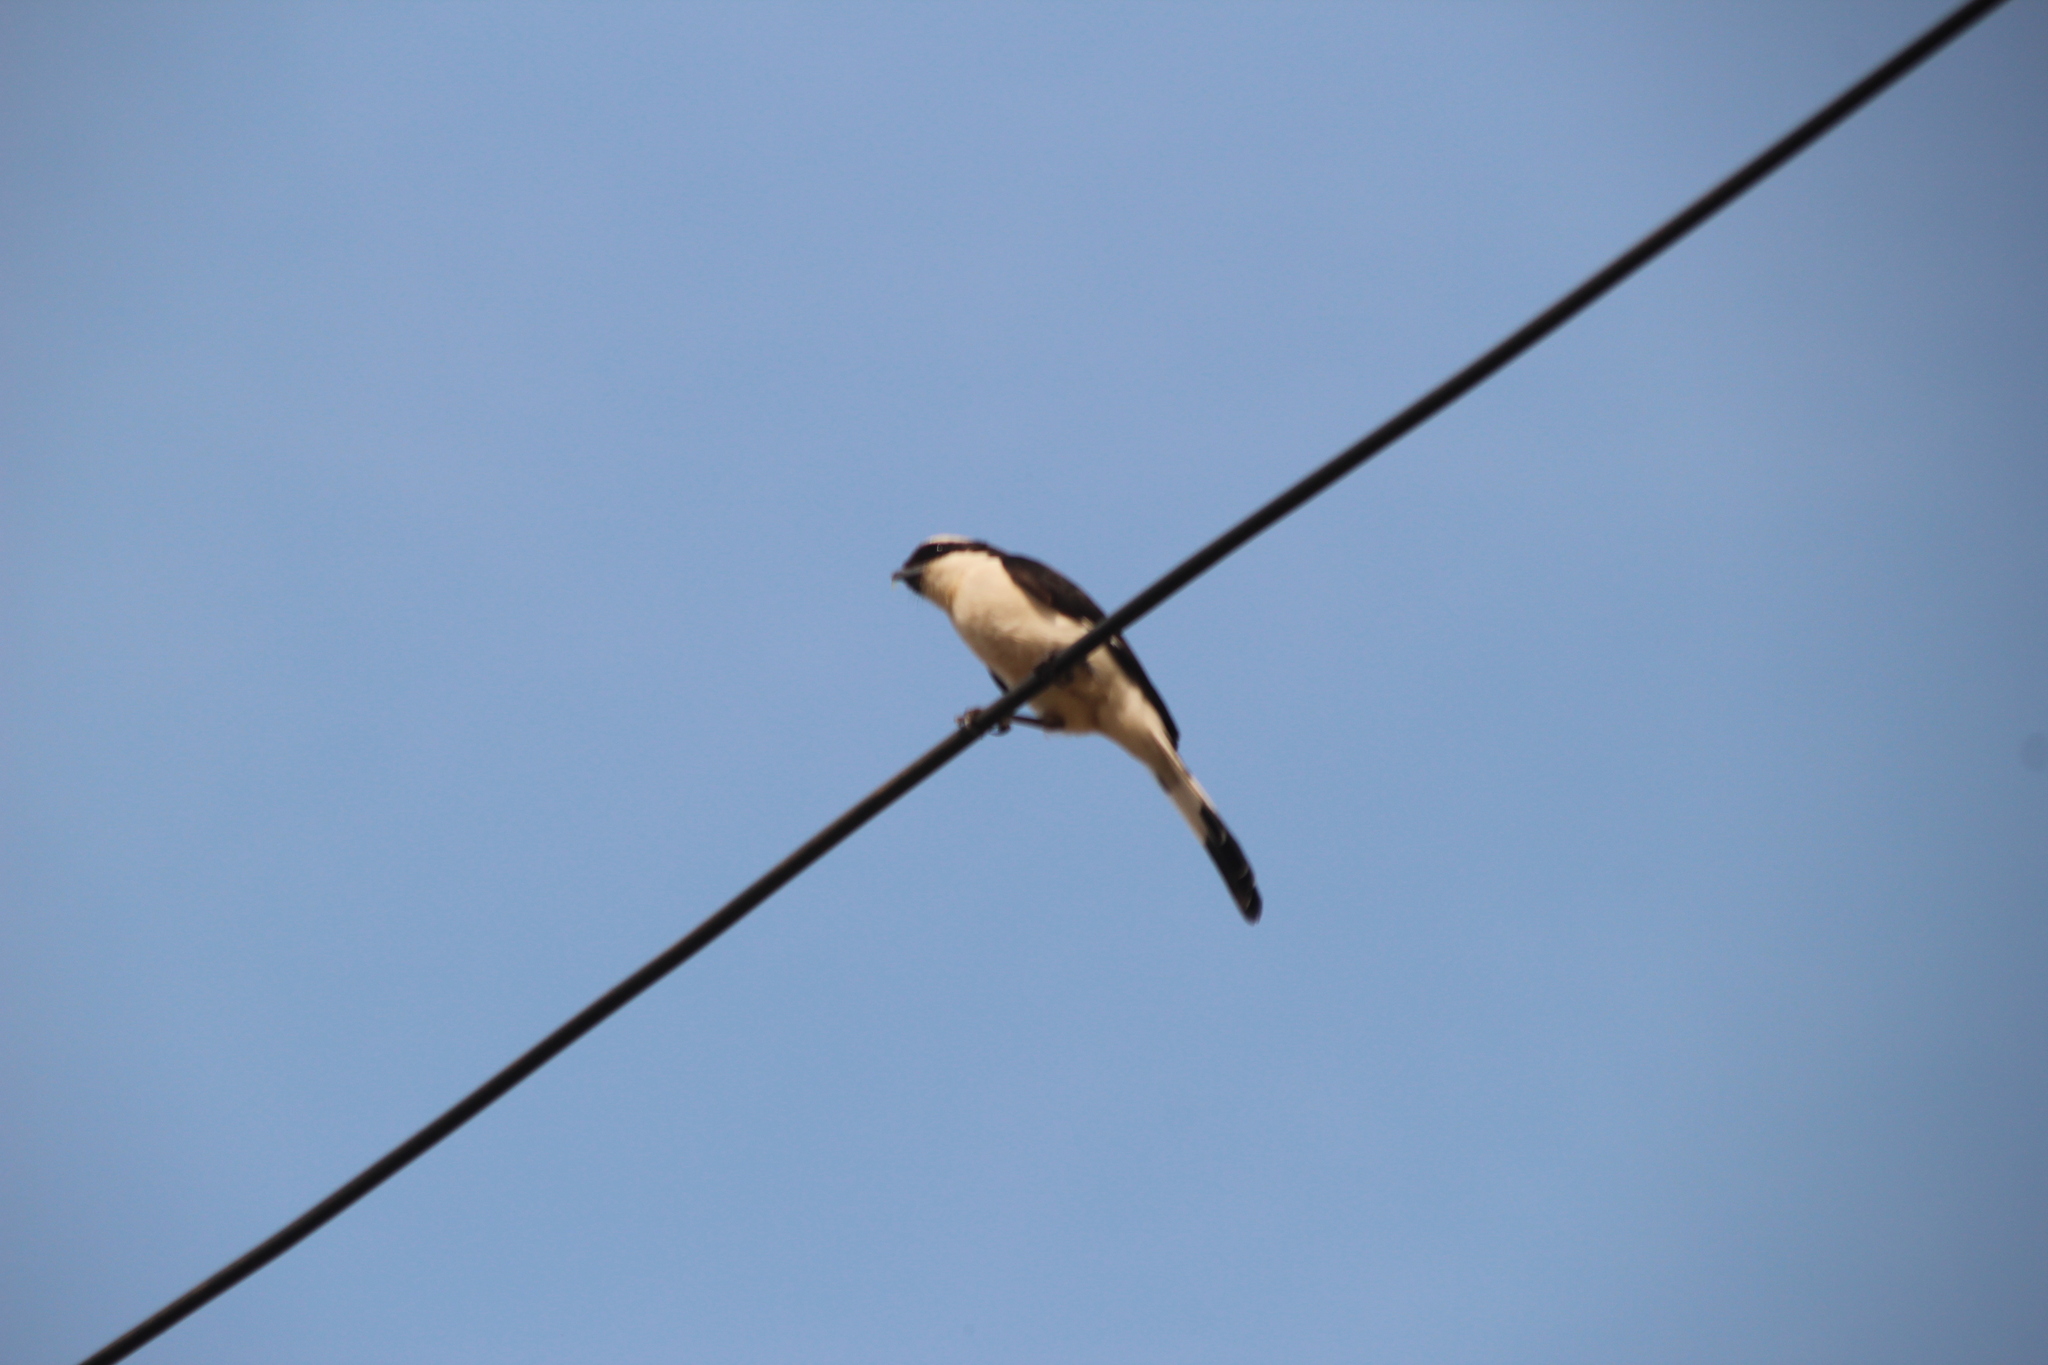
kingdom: Animalia
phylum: Chordata
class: Aves
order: Passeriformes
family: Laniidae
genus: Lanius
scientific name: Lanius excubitoroides
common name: Grey-backed fiscal
